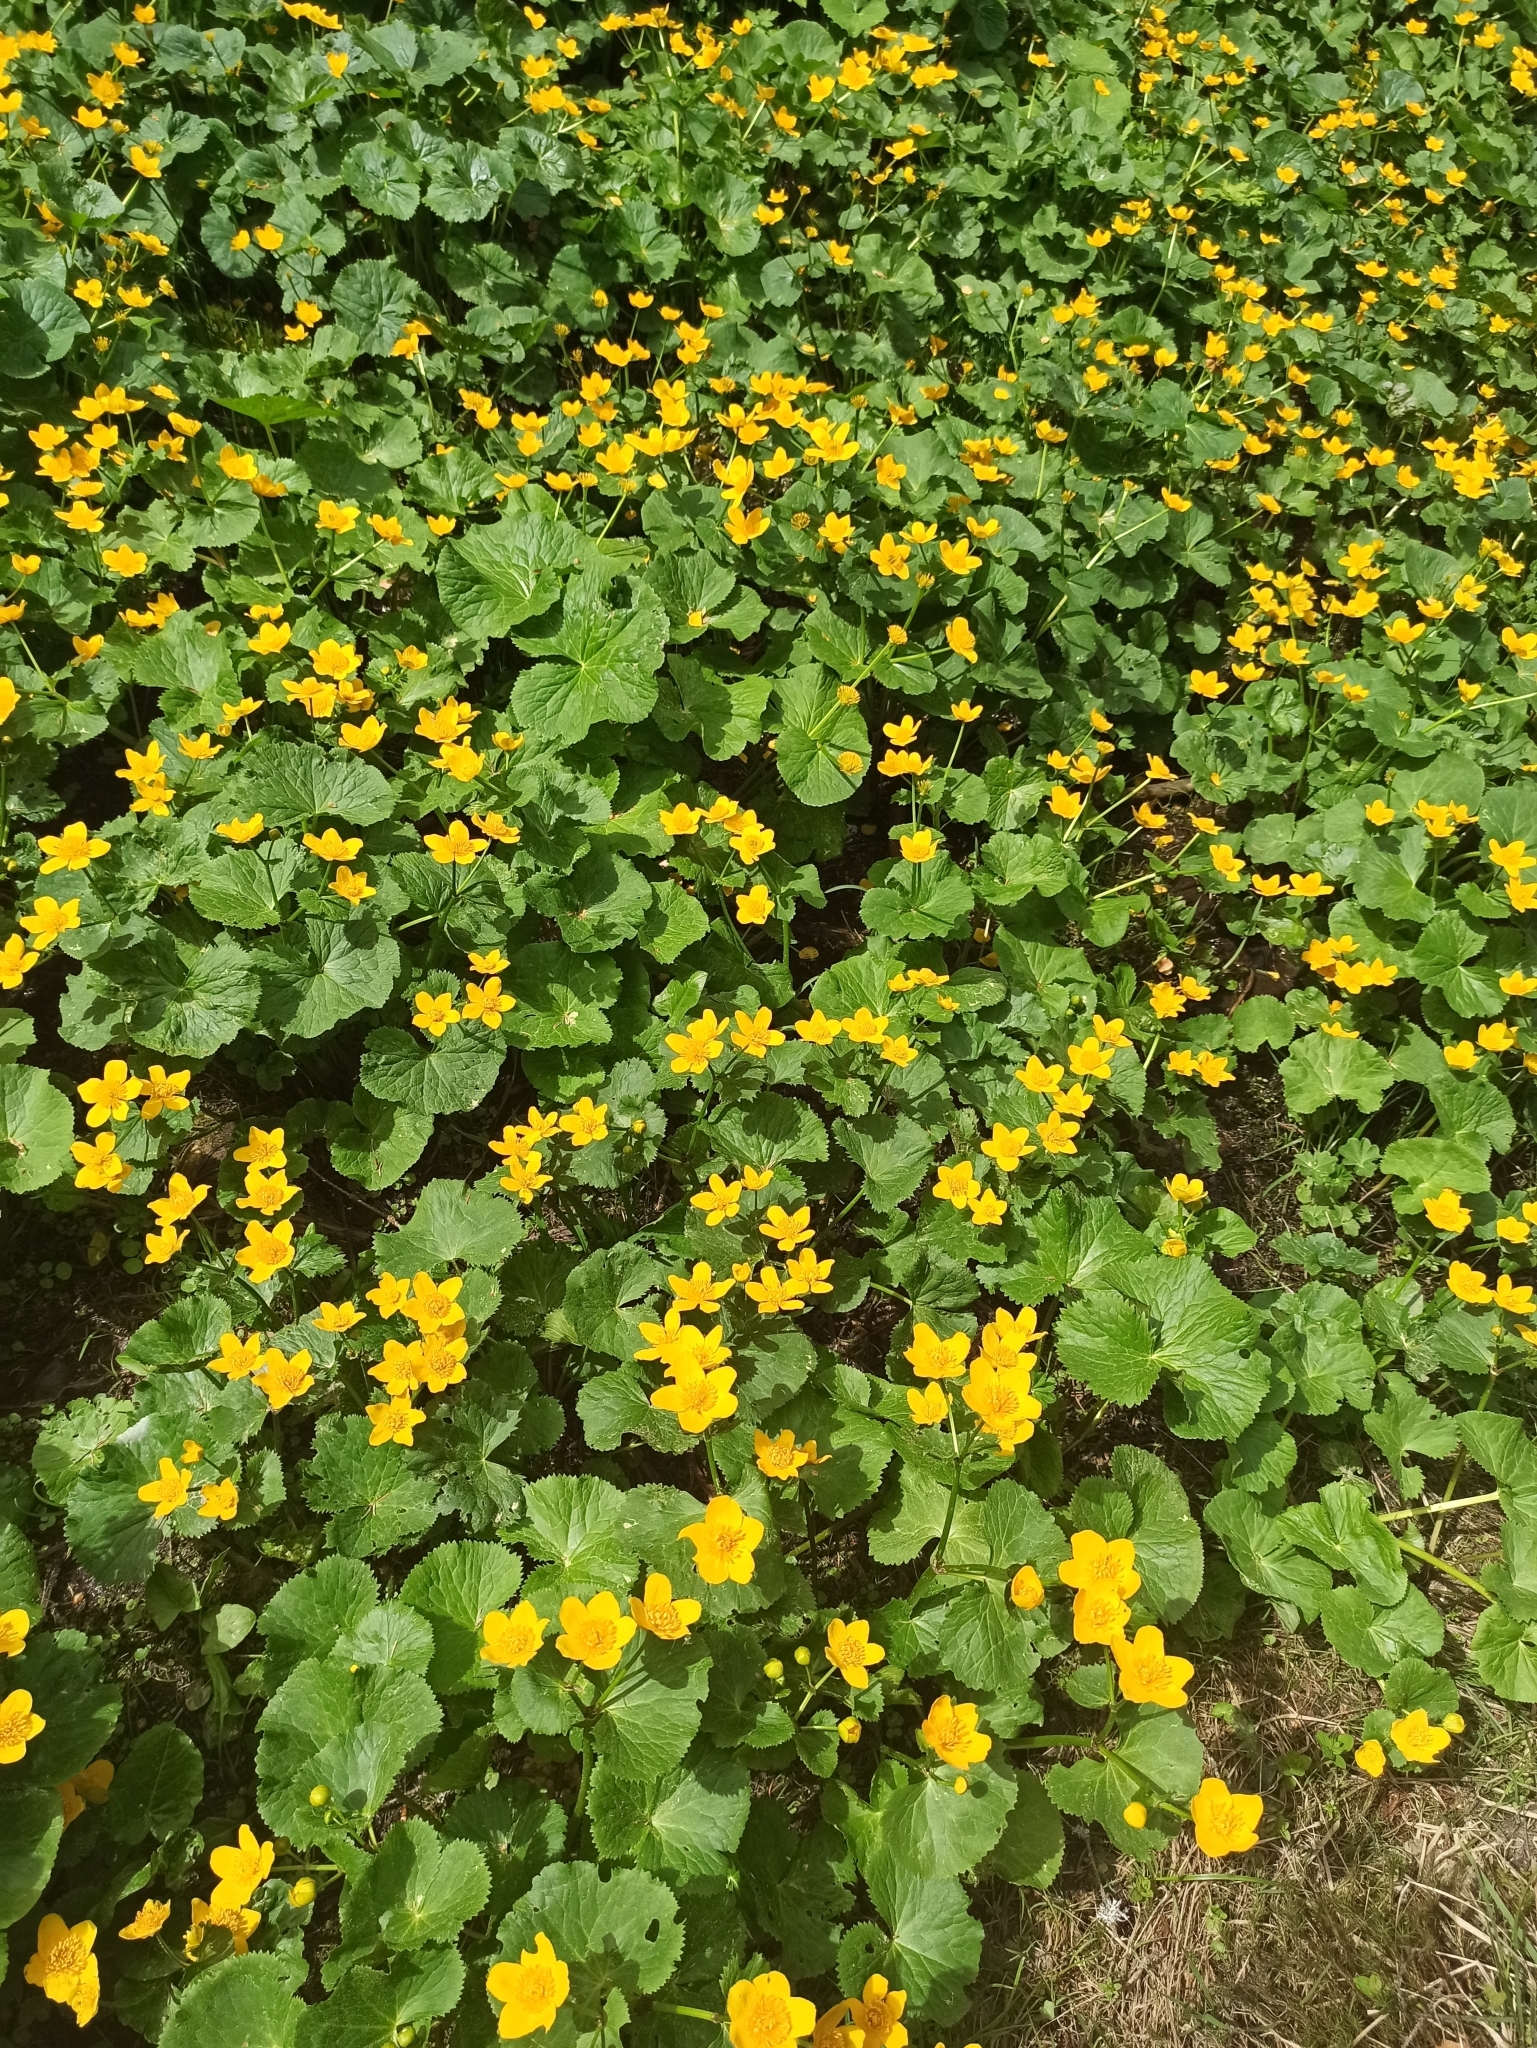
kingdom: Plantae
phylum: Tracheophyta
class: Magnoliopsida
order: Ranunculales
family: Ranunculaceae
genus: Caltha
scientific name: Caltha palustris
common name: Marsh marigold
